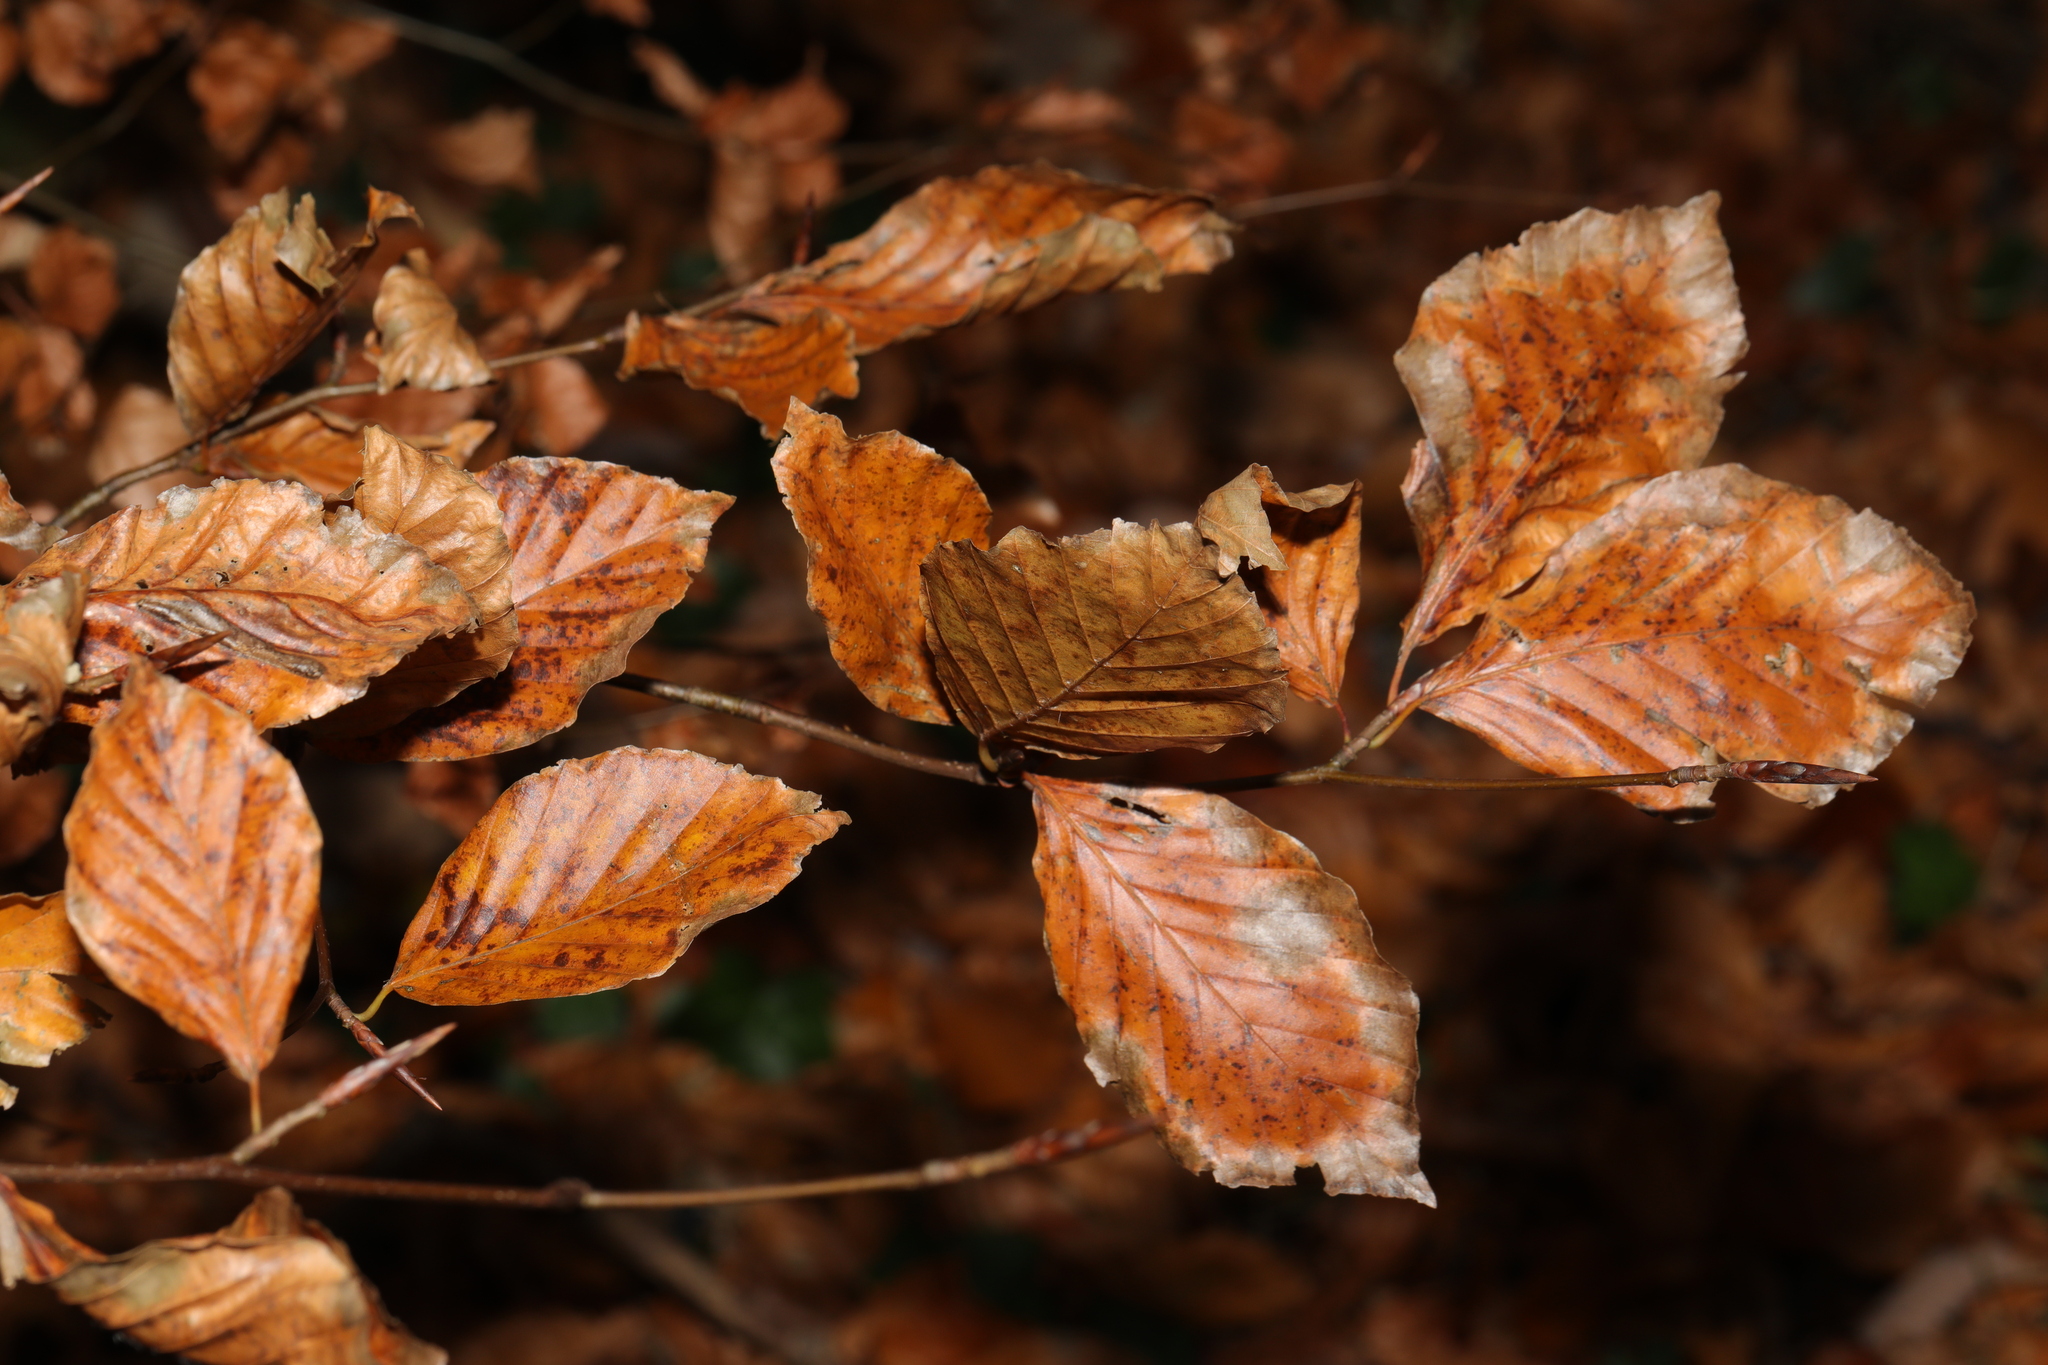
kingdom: Plantae
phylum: Tracheophyta
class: Magnoliopsida
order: Fagales
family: Fagaceae
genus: Fagus
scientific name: Fagus sylvatica
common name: Beech
